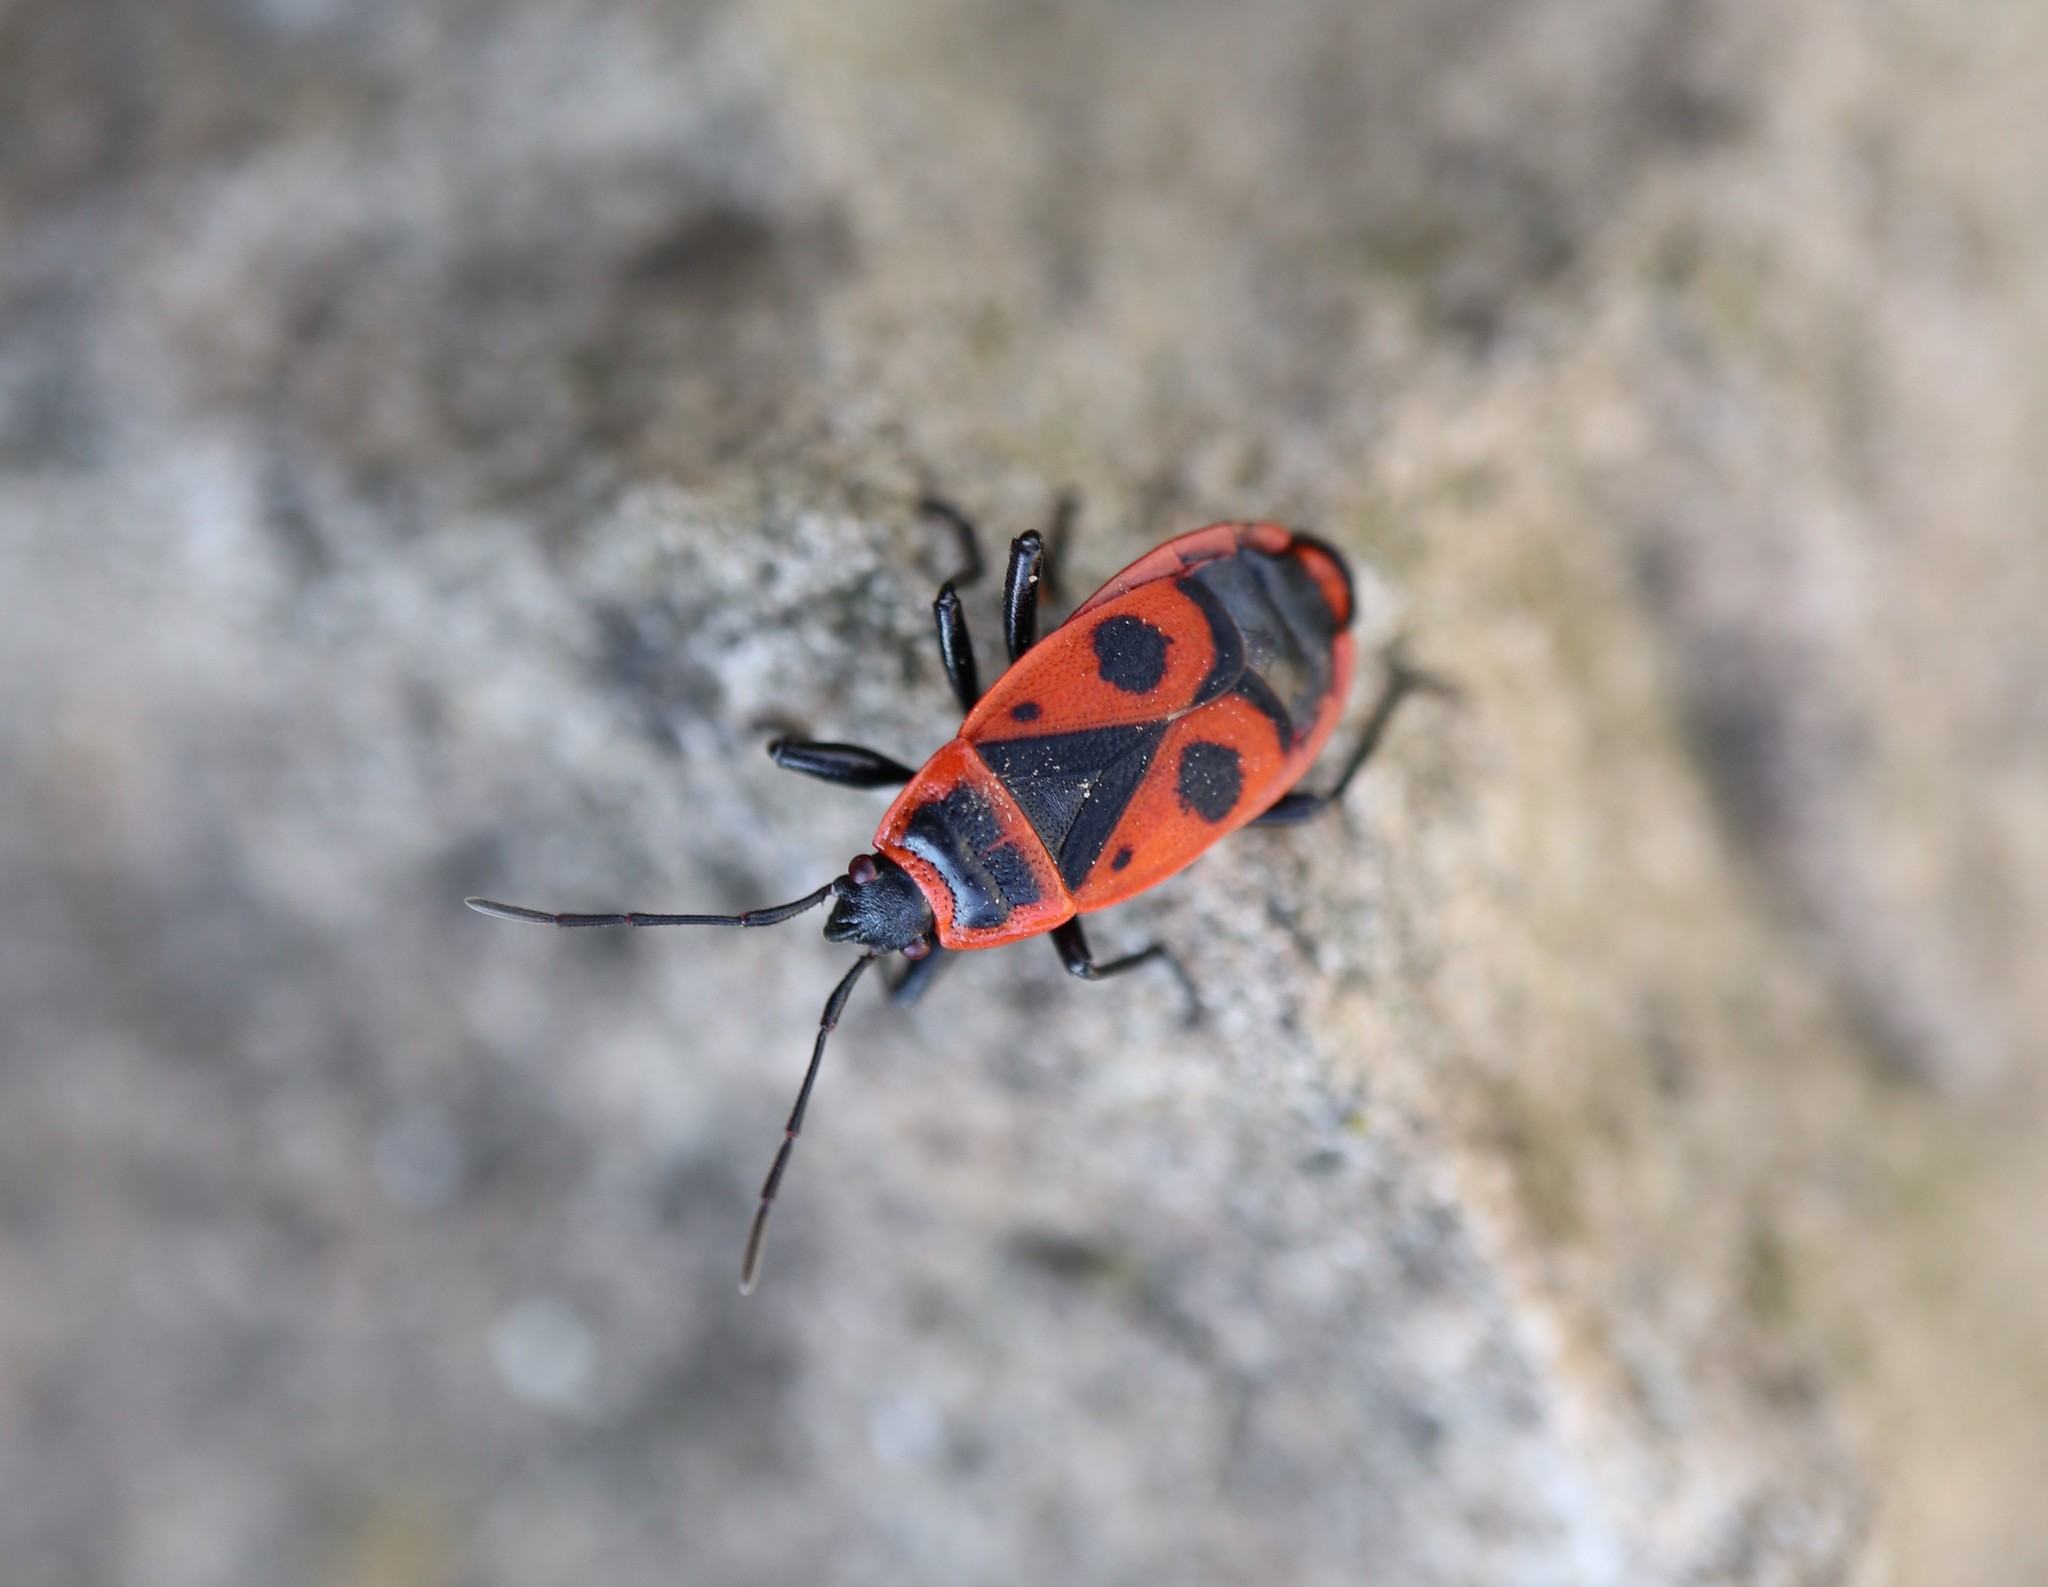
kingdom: Animalia
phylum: Arthropoda
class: Insecta
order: Hemiptera
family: Pyrrhocoridae
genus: Pyrrhocoris
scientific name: Pyrrhocoris apterus
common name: Firebug
